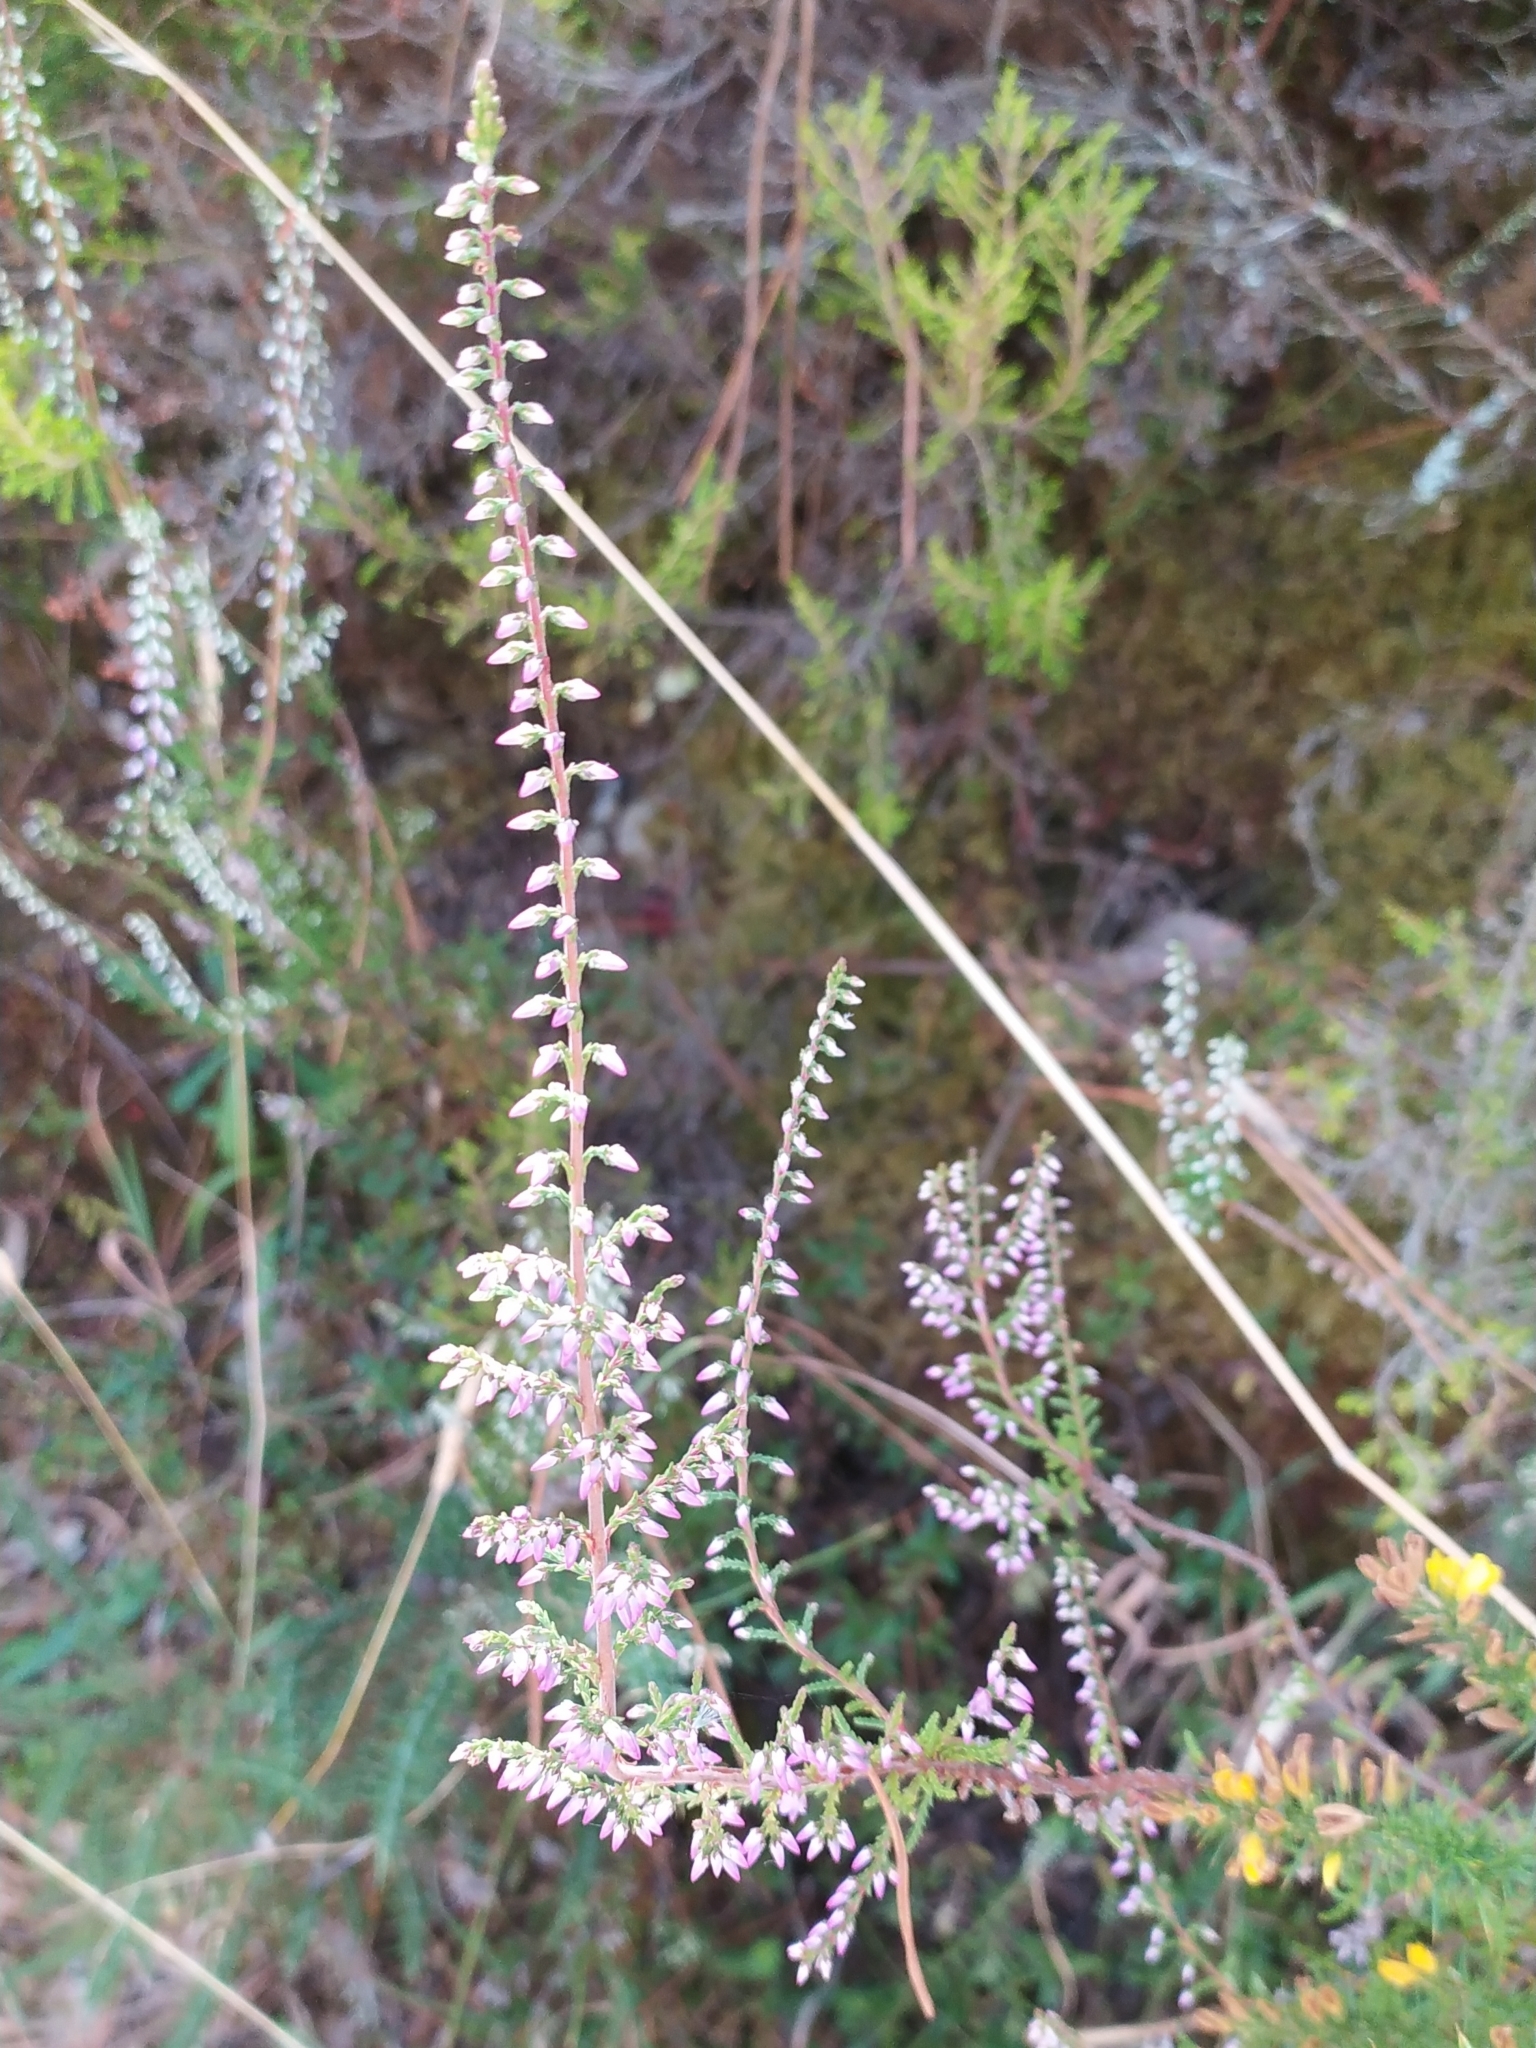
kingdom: Plantae
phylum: Tracheophyta
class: Magnoliopsida
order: Ericales
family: Ericaceae
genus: Calluna
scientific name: Calluna vulgaris
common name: Heather
